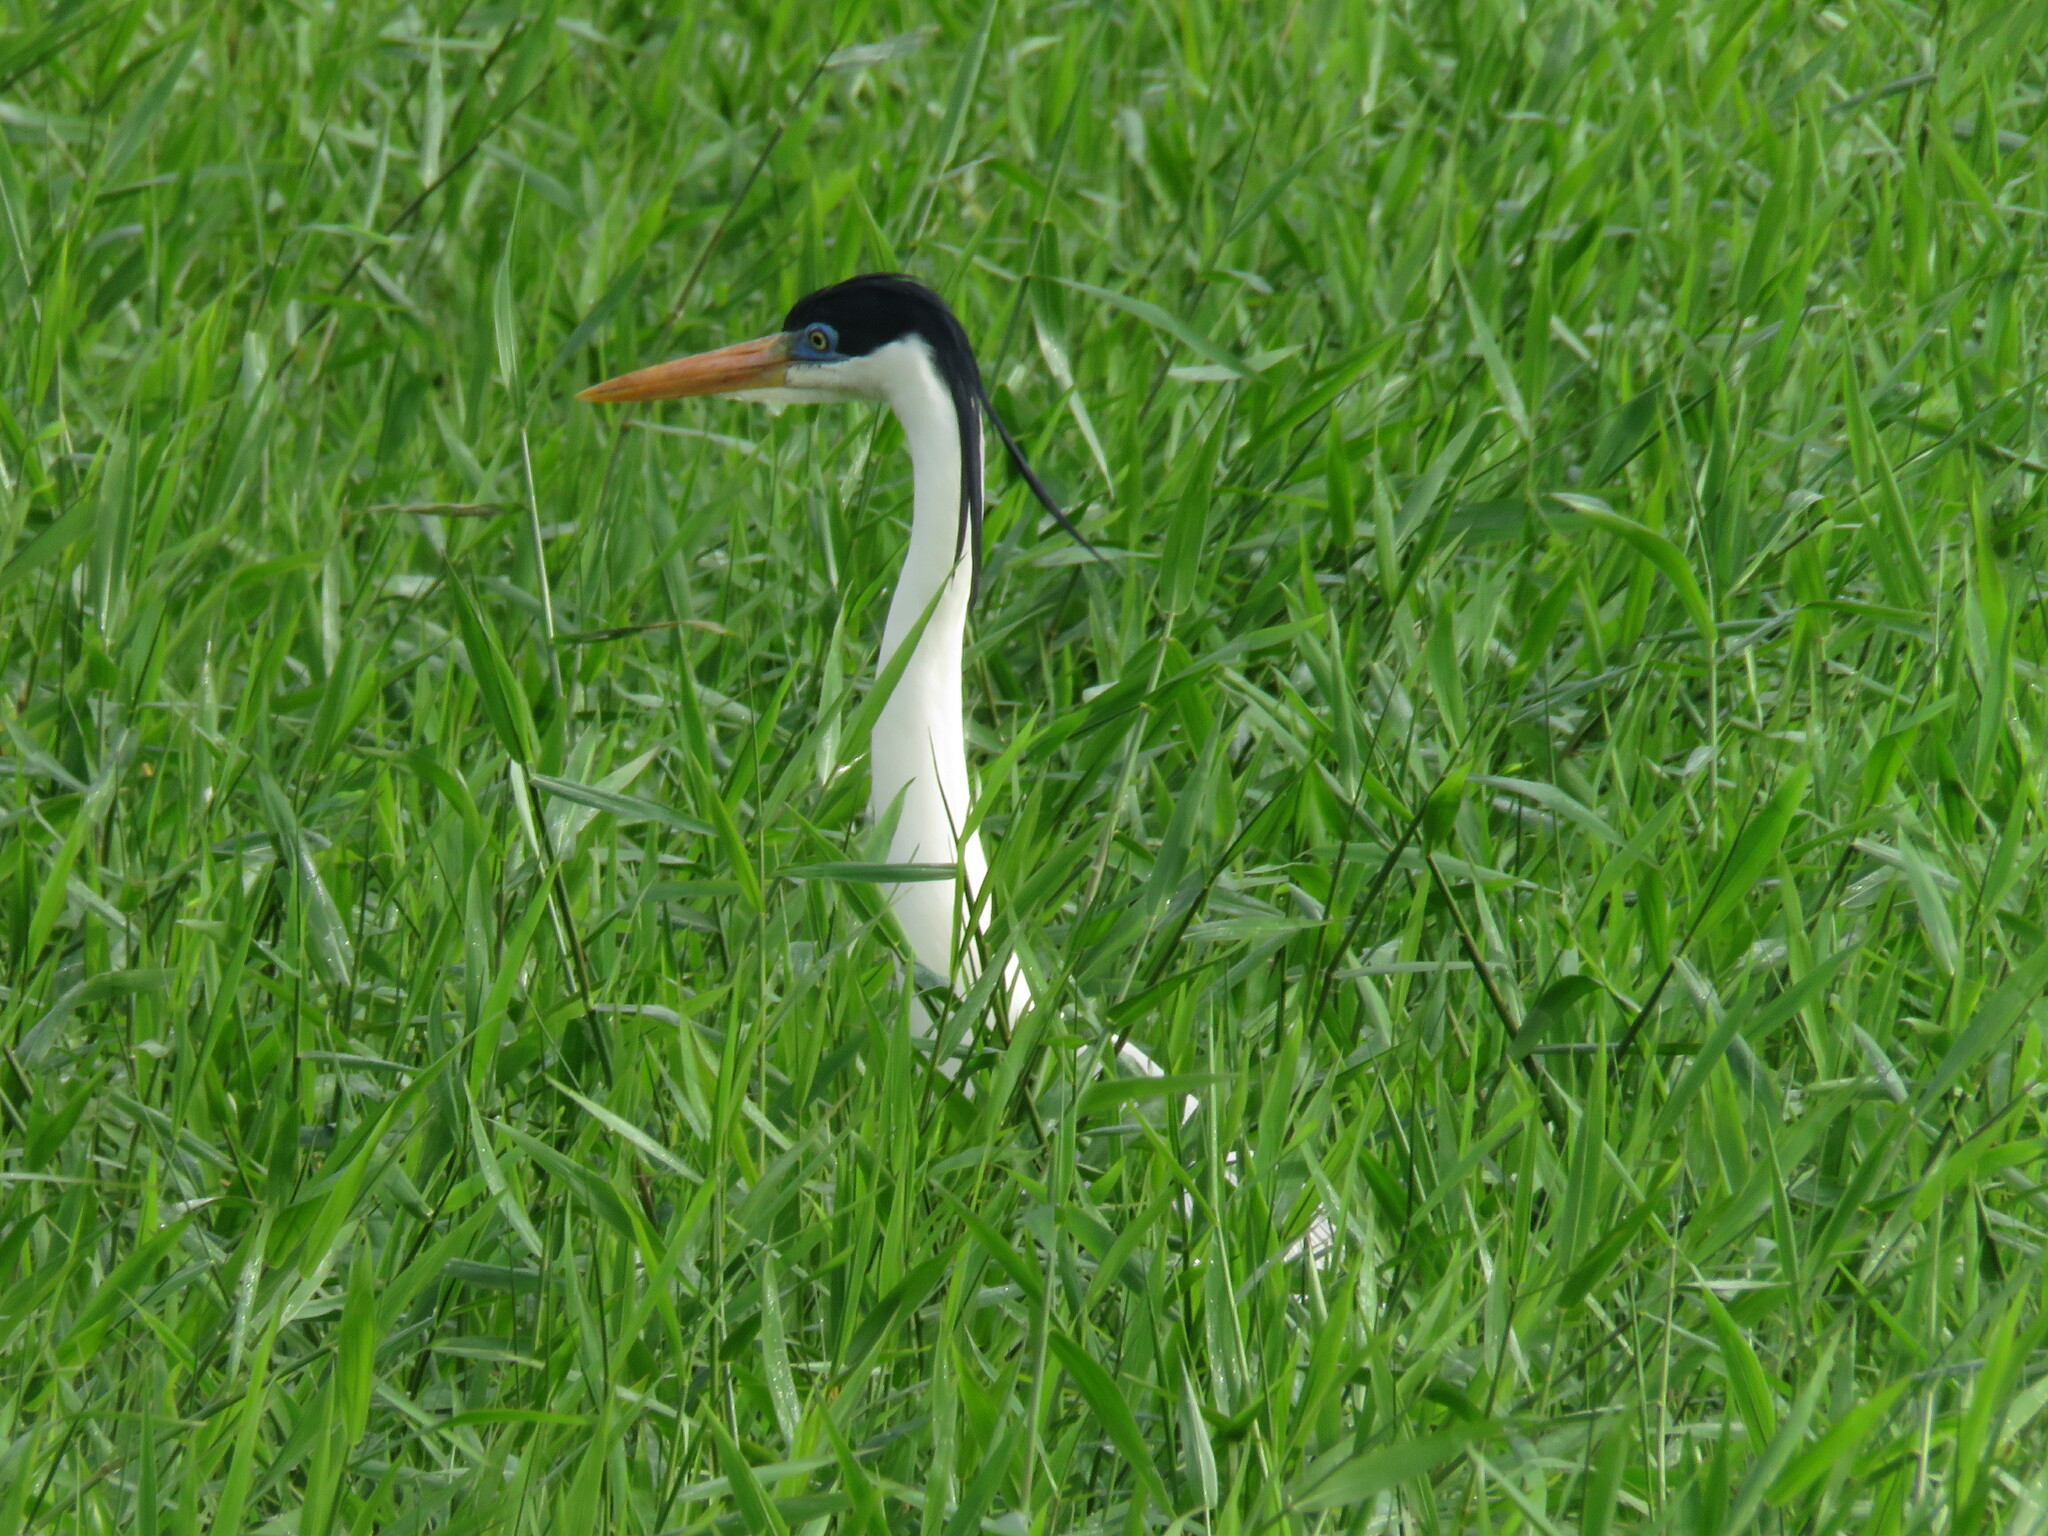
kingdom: Animalia
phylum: Chordata
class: Aves
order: Pelecaniformes
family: Ardeidae
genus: Ardea
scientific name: Ardea cocoi
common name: Cocoi heron
